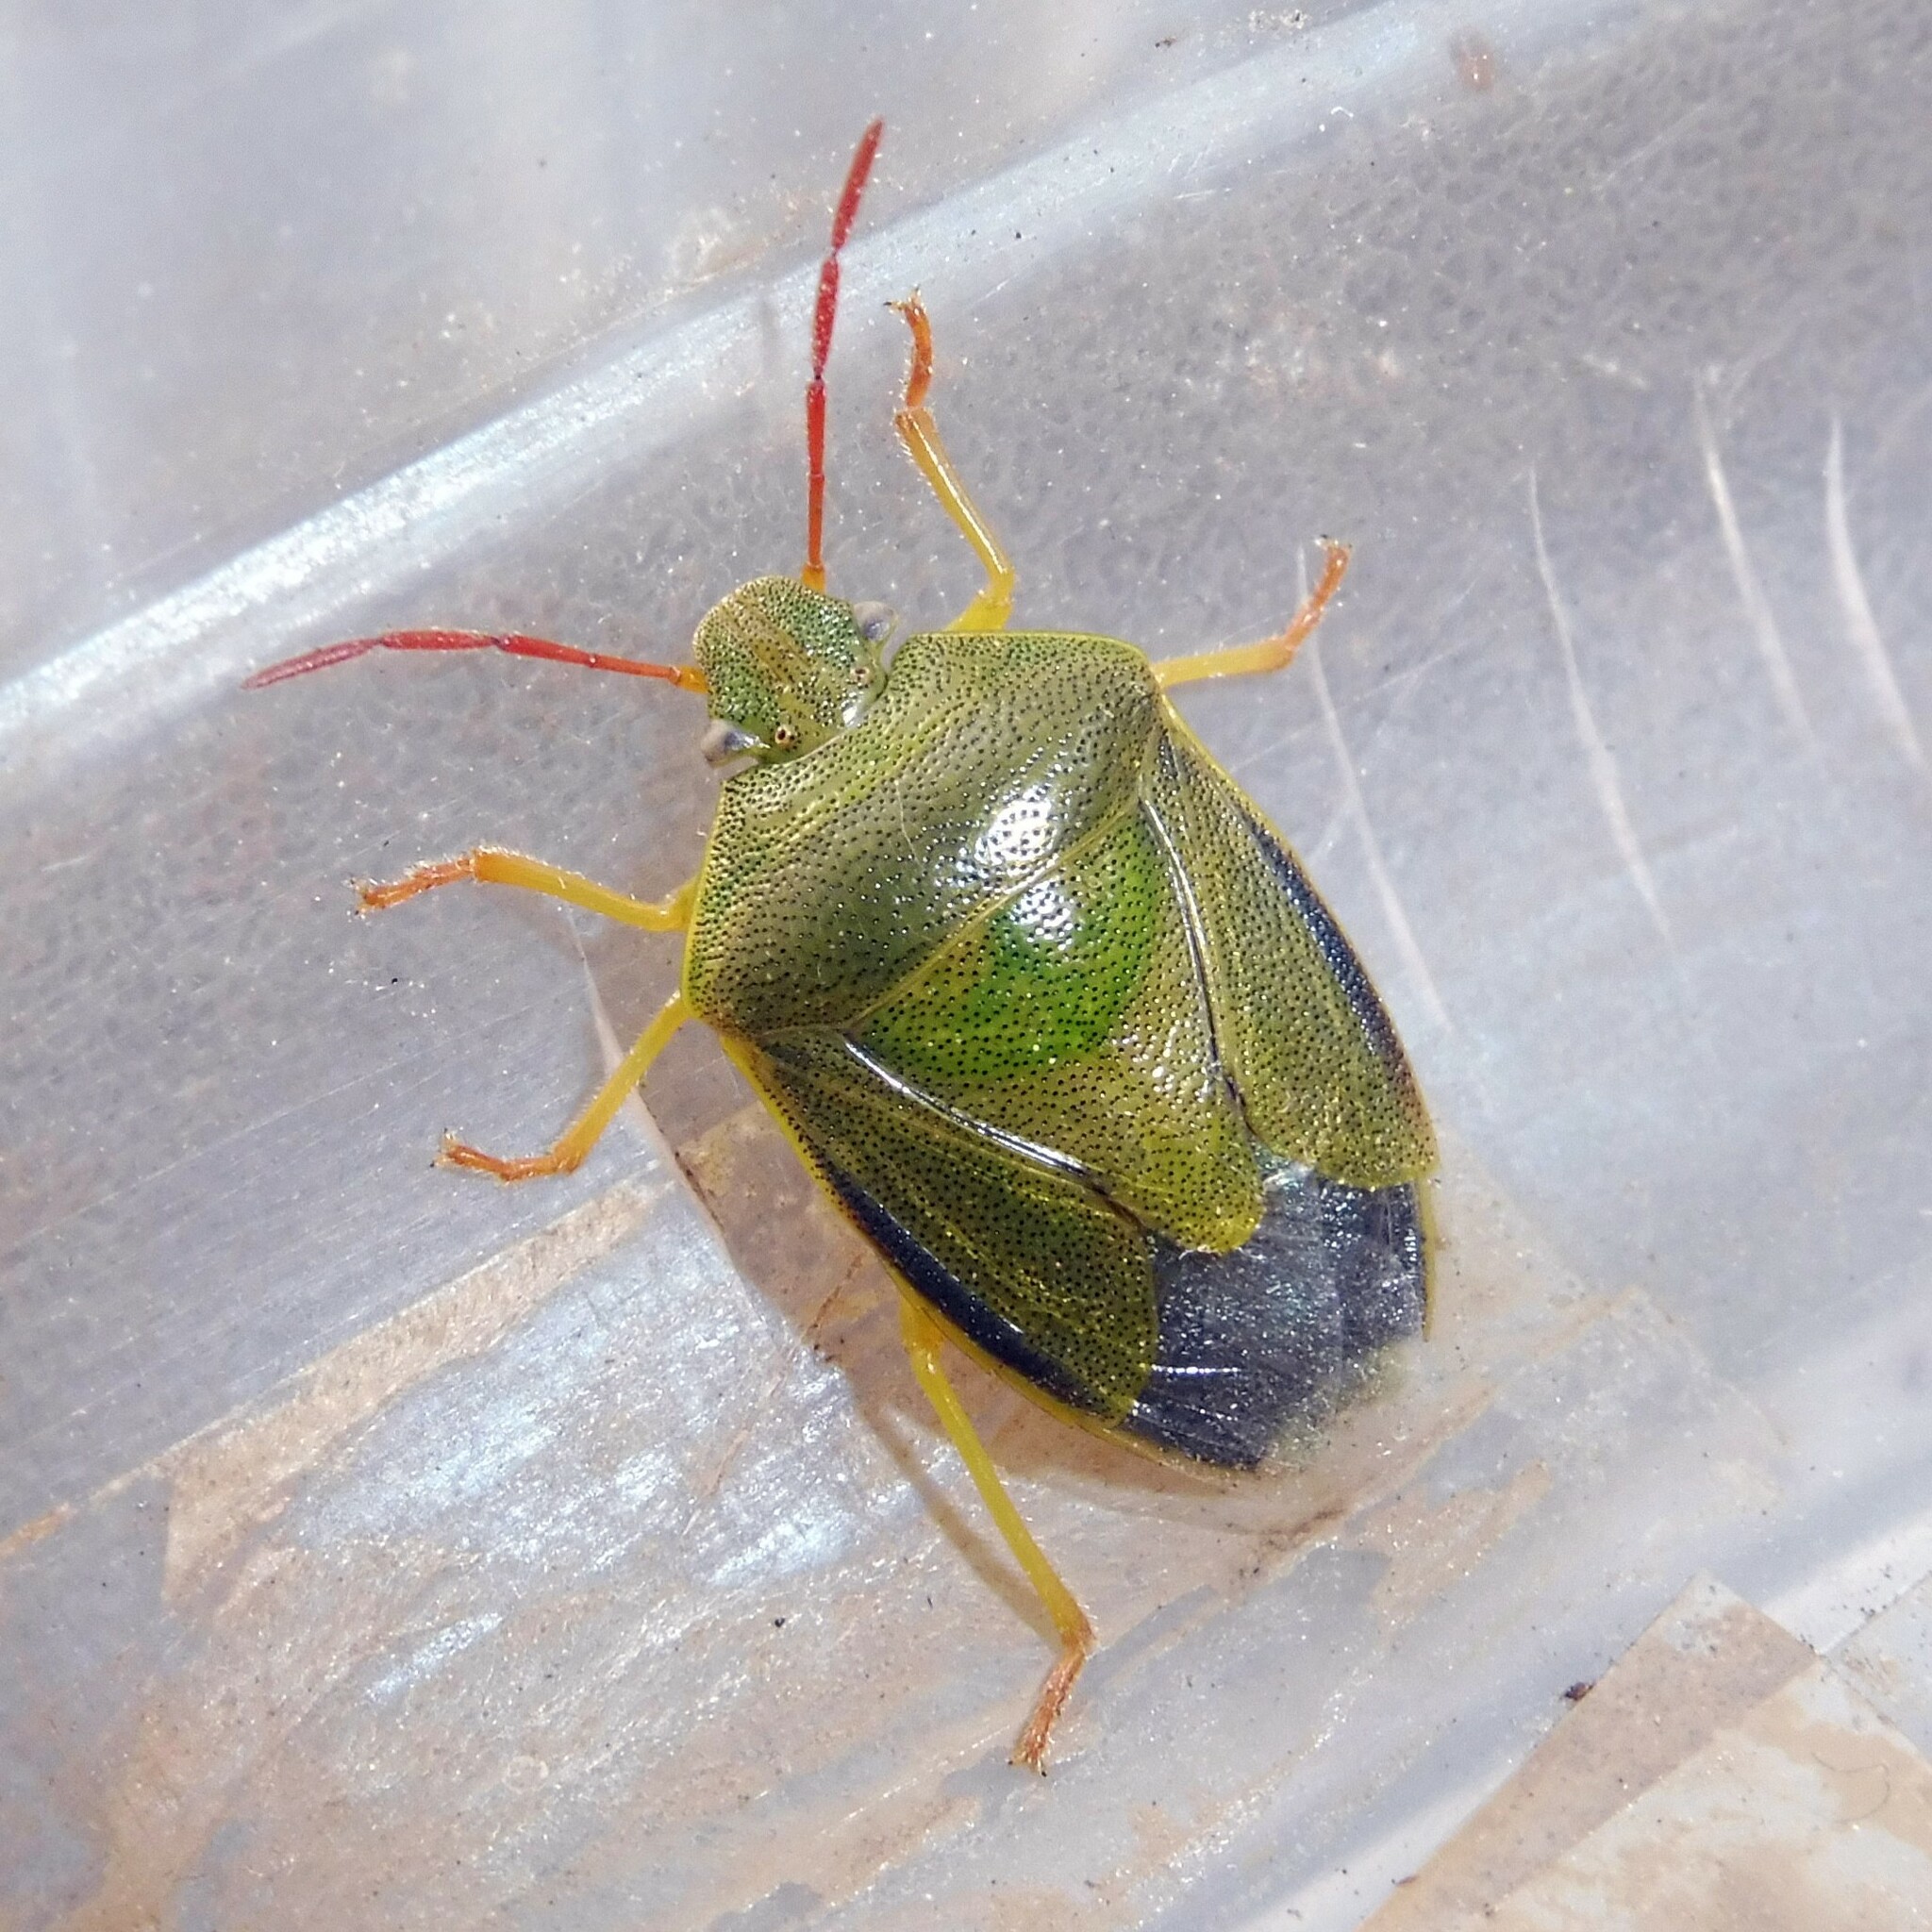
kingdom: Animalia
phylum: Arthropoda
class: Insecta
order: Hemiptera
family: Pentatomidae
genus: Piezodorus
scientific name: Piezodorus lituratus
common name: Stink bug
